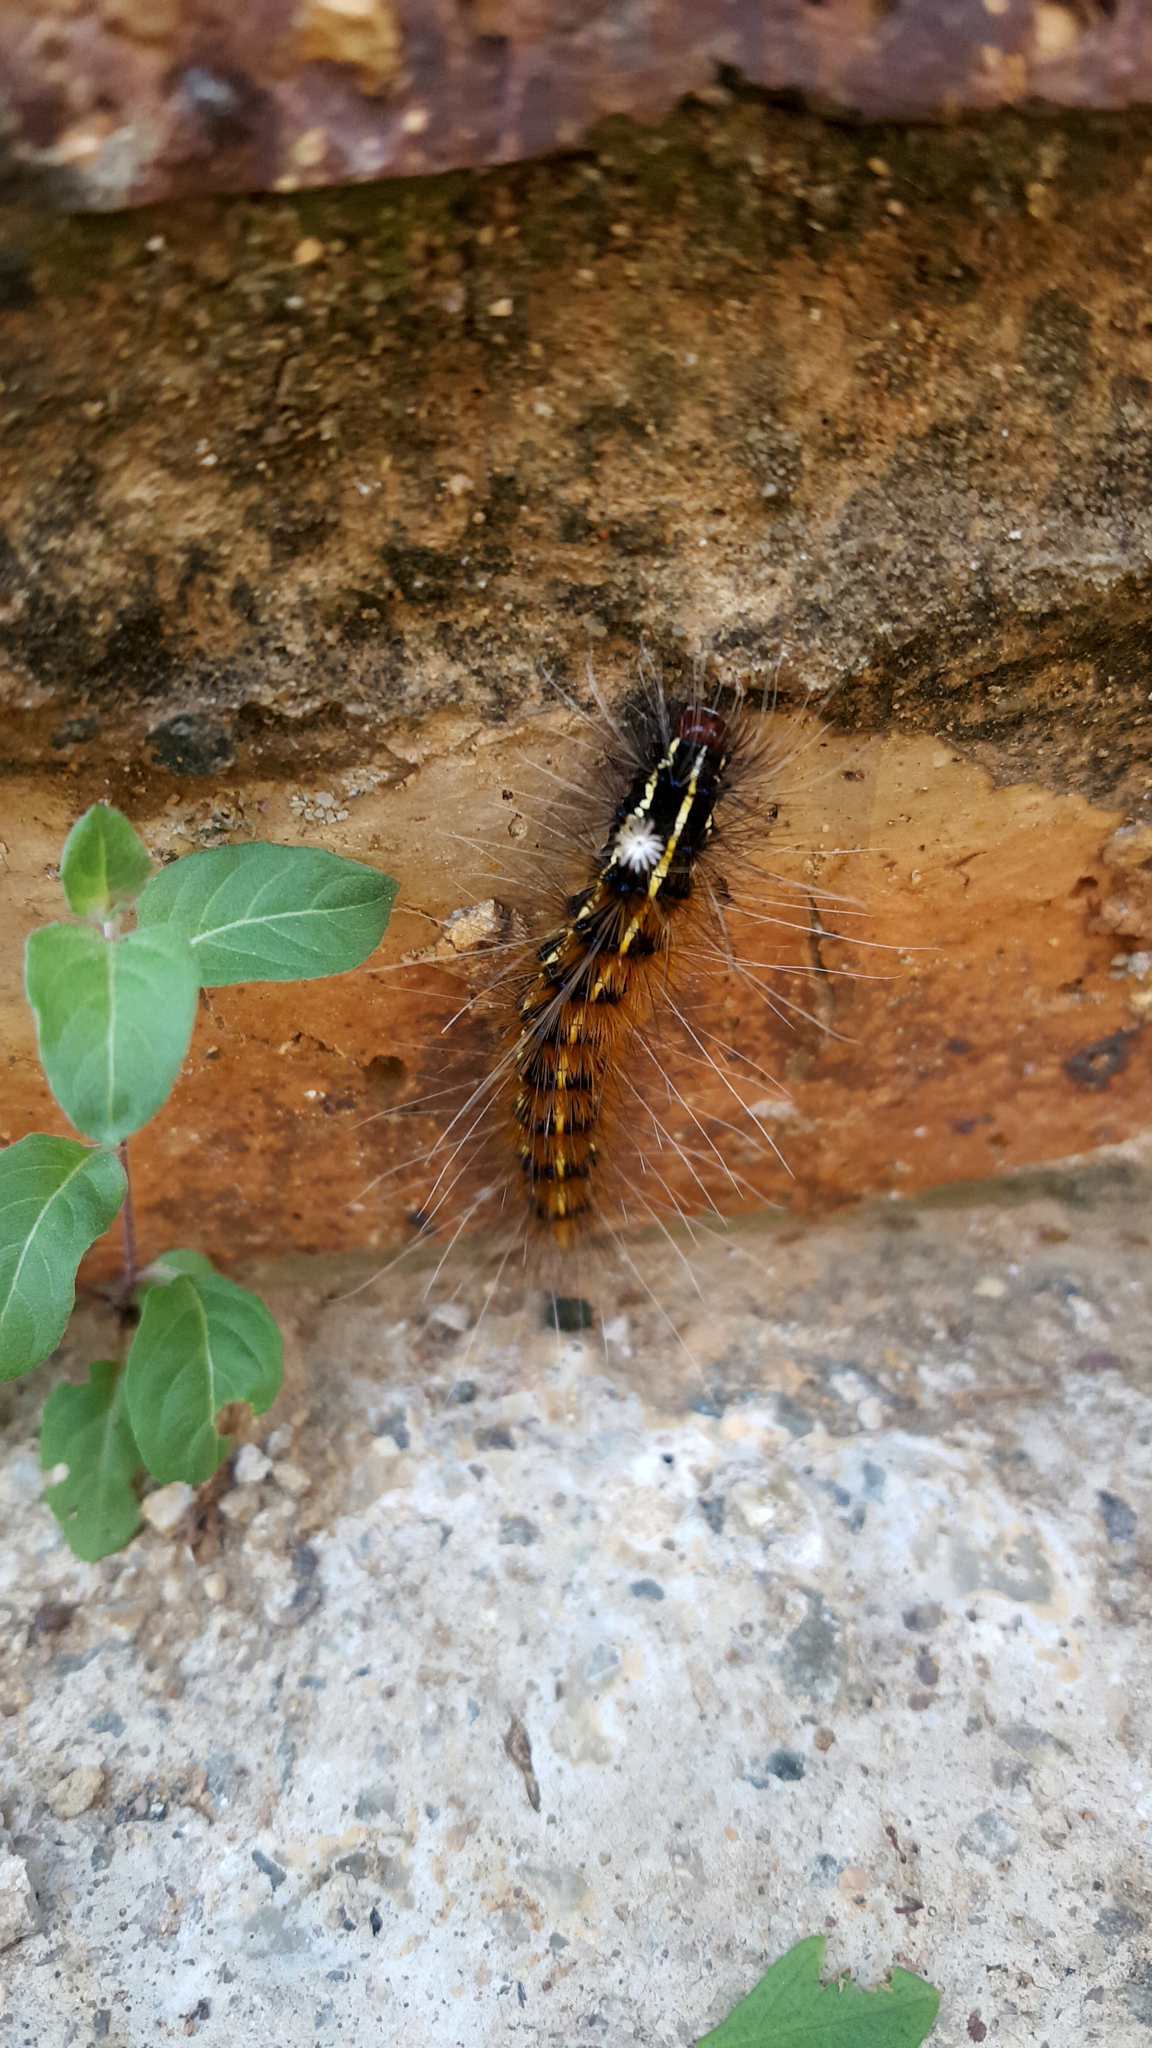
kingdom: Animalia
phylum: Arthropoda
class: Insecta
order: Lepidoptera
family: Erebidae
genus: Leucaloa
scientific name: Leucaloa eugraphica
